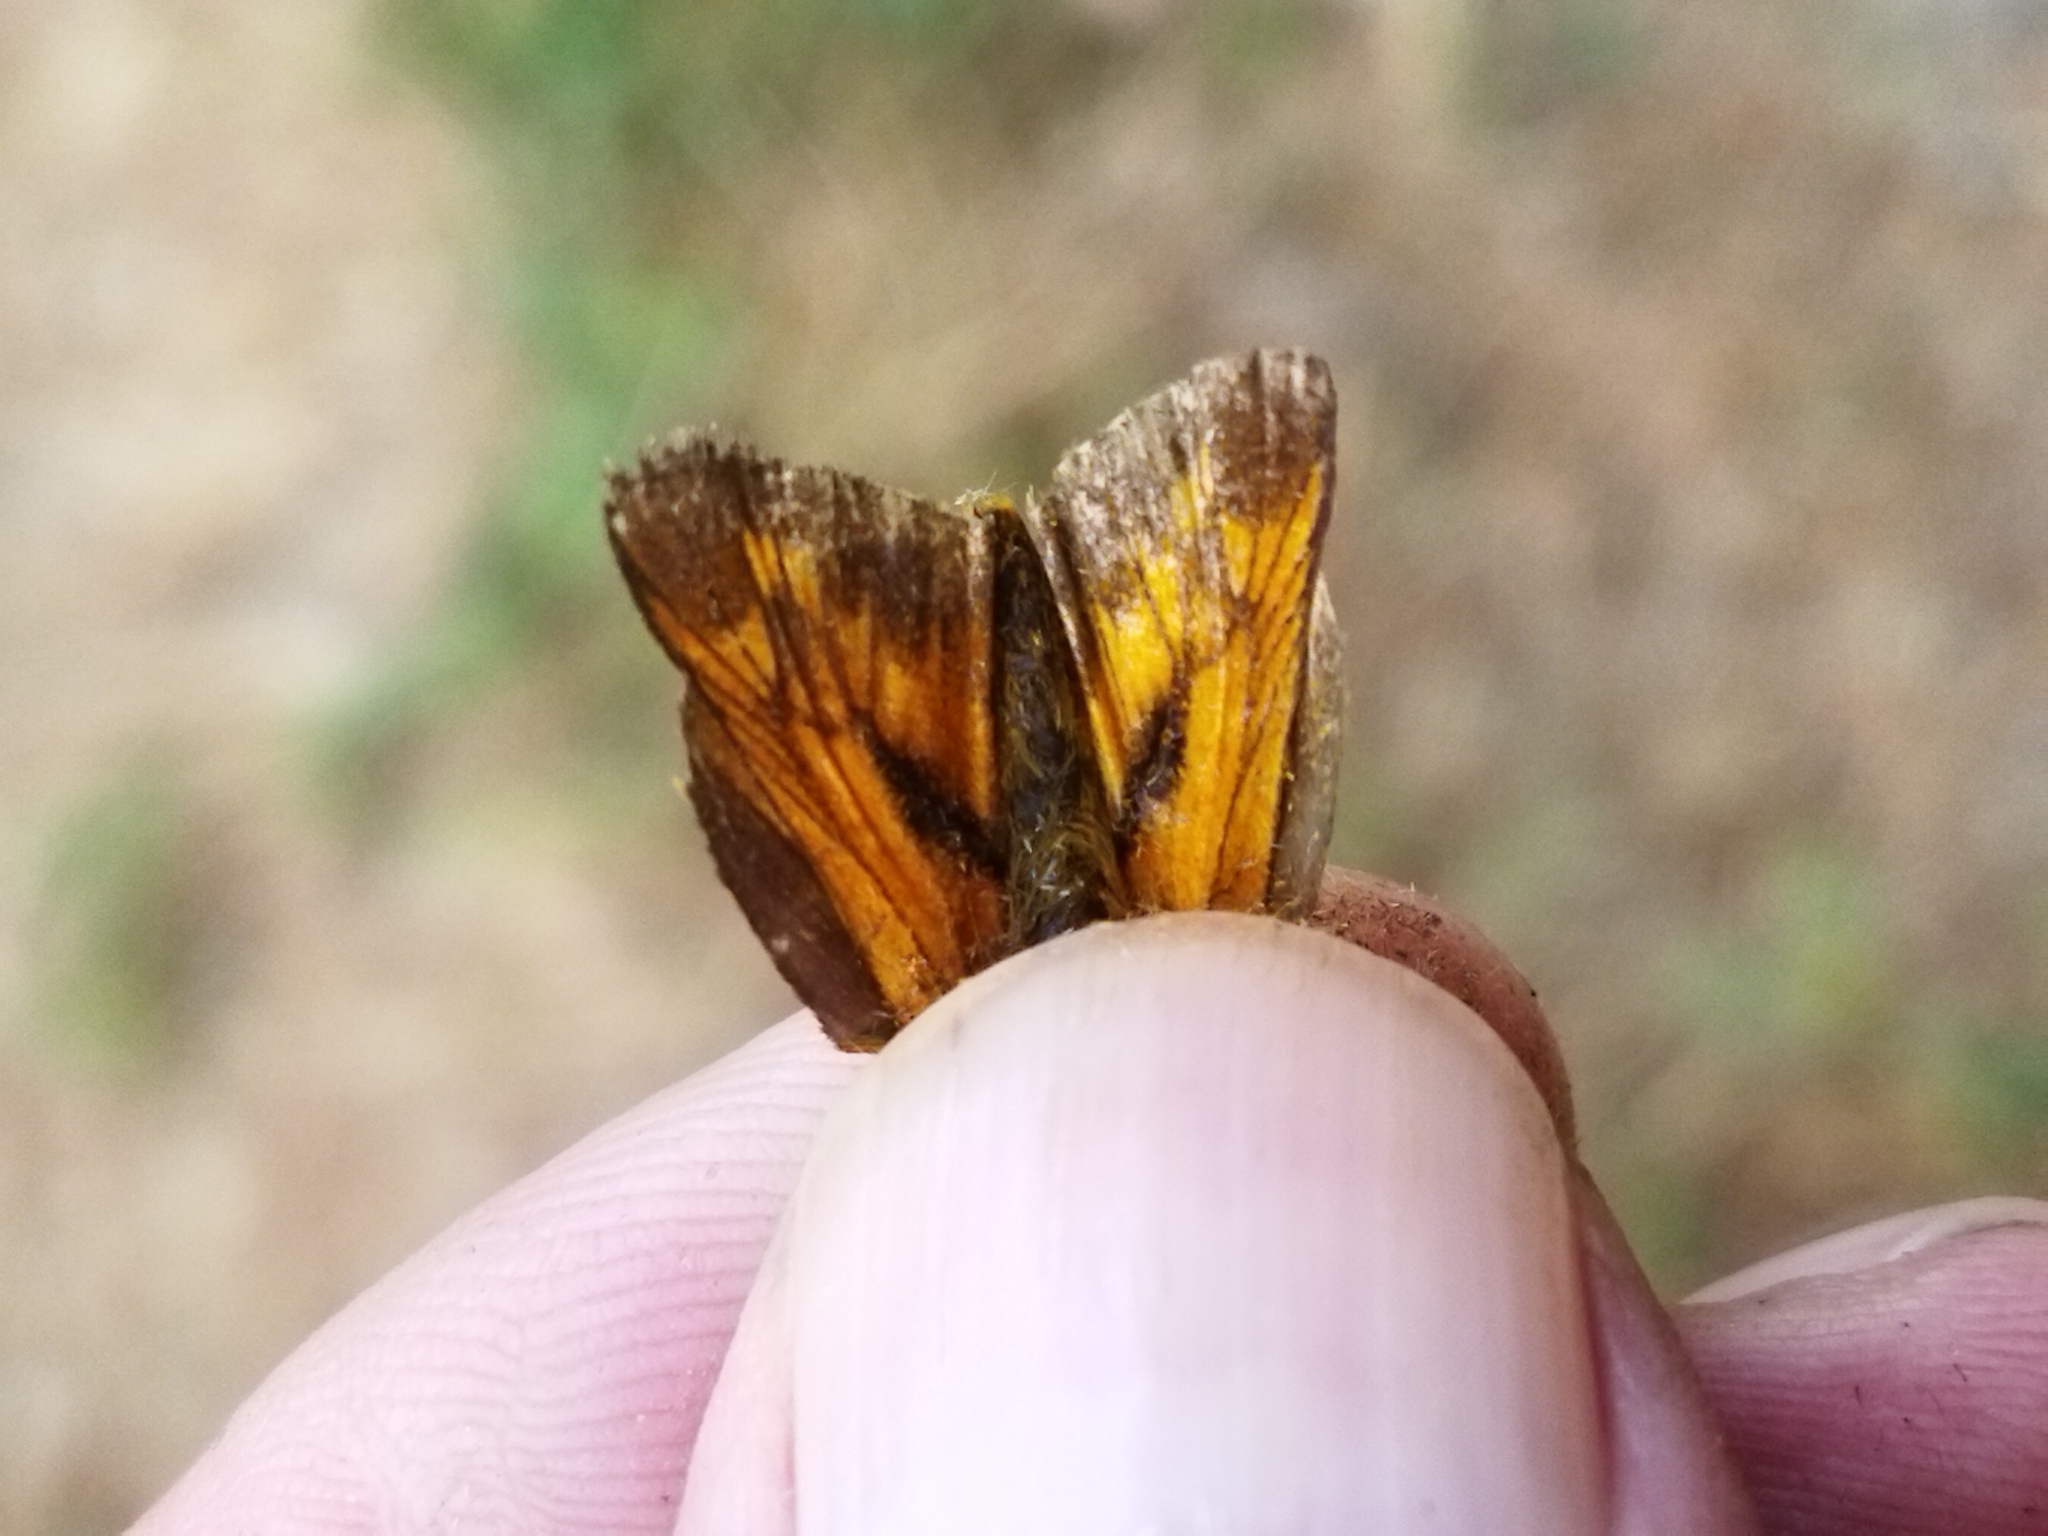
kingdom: Animalia
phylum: Arthropoda
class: Insecta
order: Lepidoptera
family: Hesperiidae
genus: Ochlodes
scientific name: Ochlodes venata
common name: Large skipper
